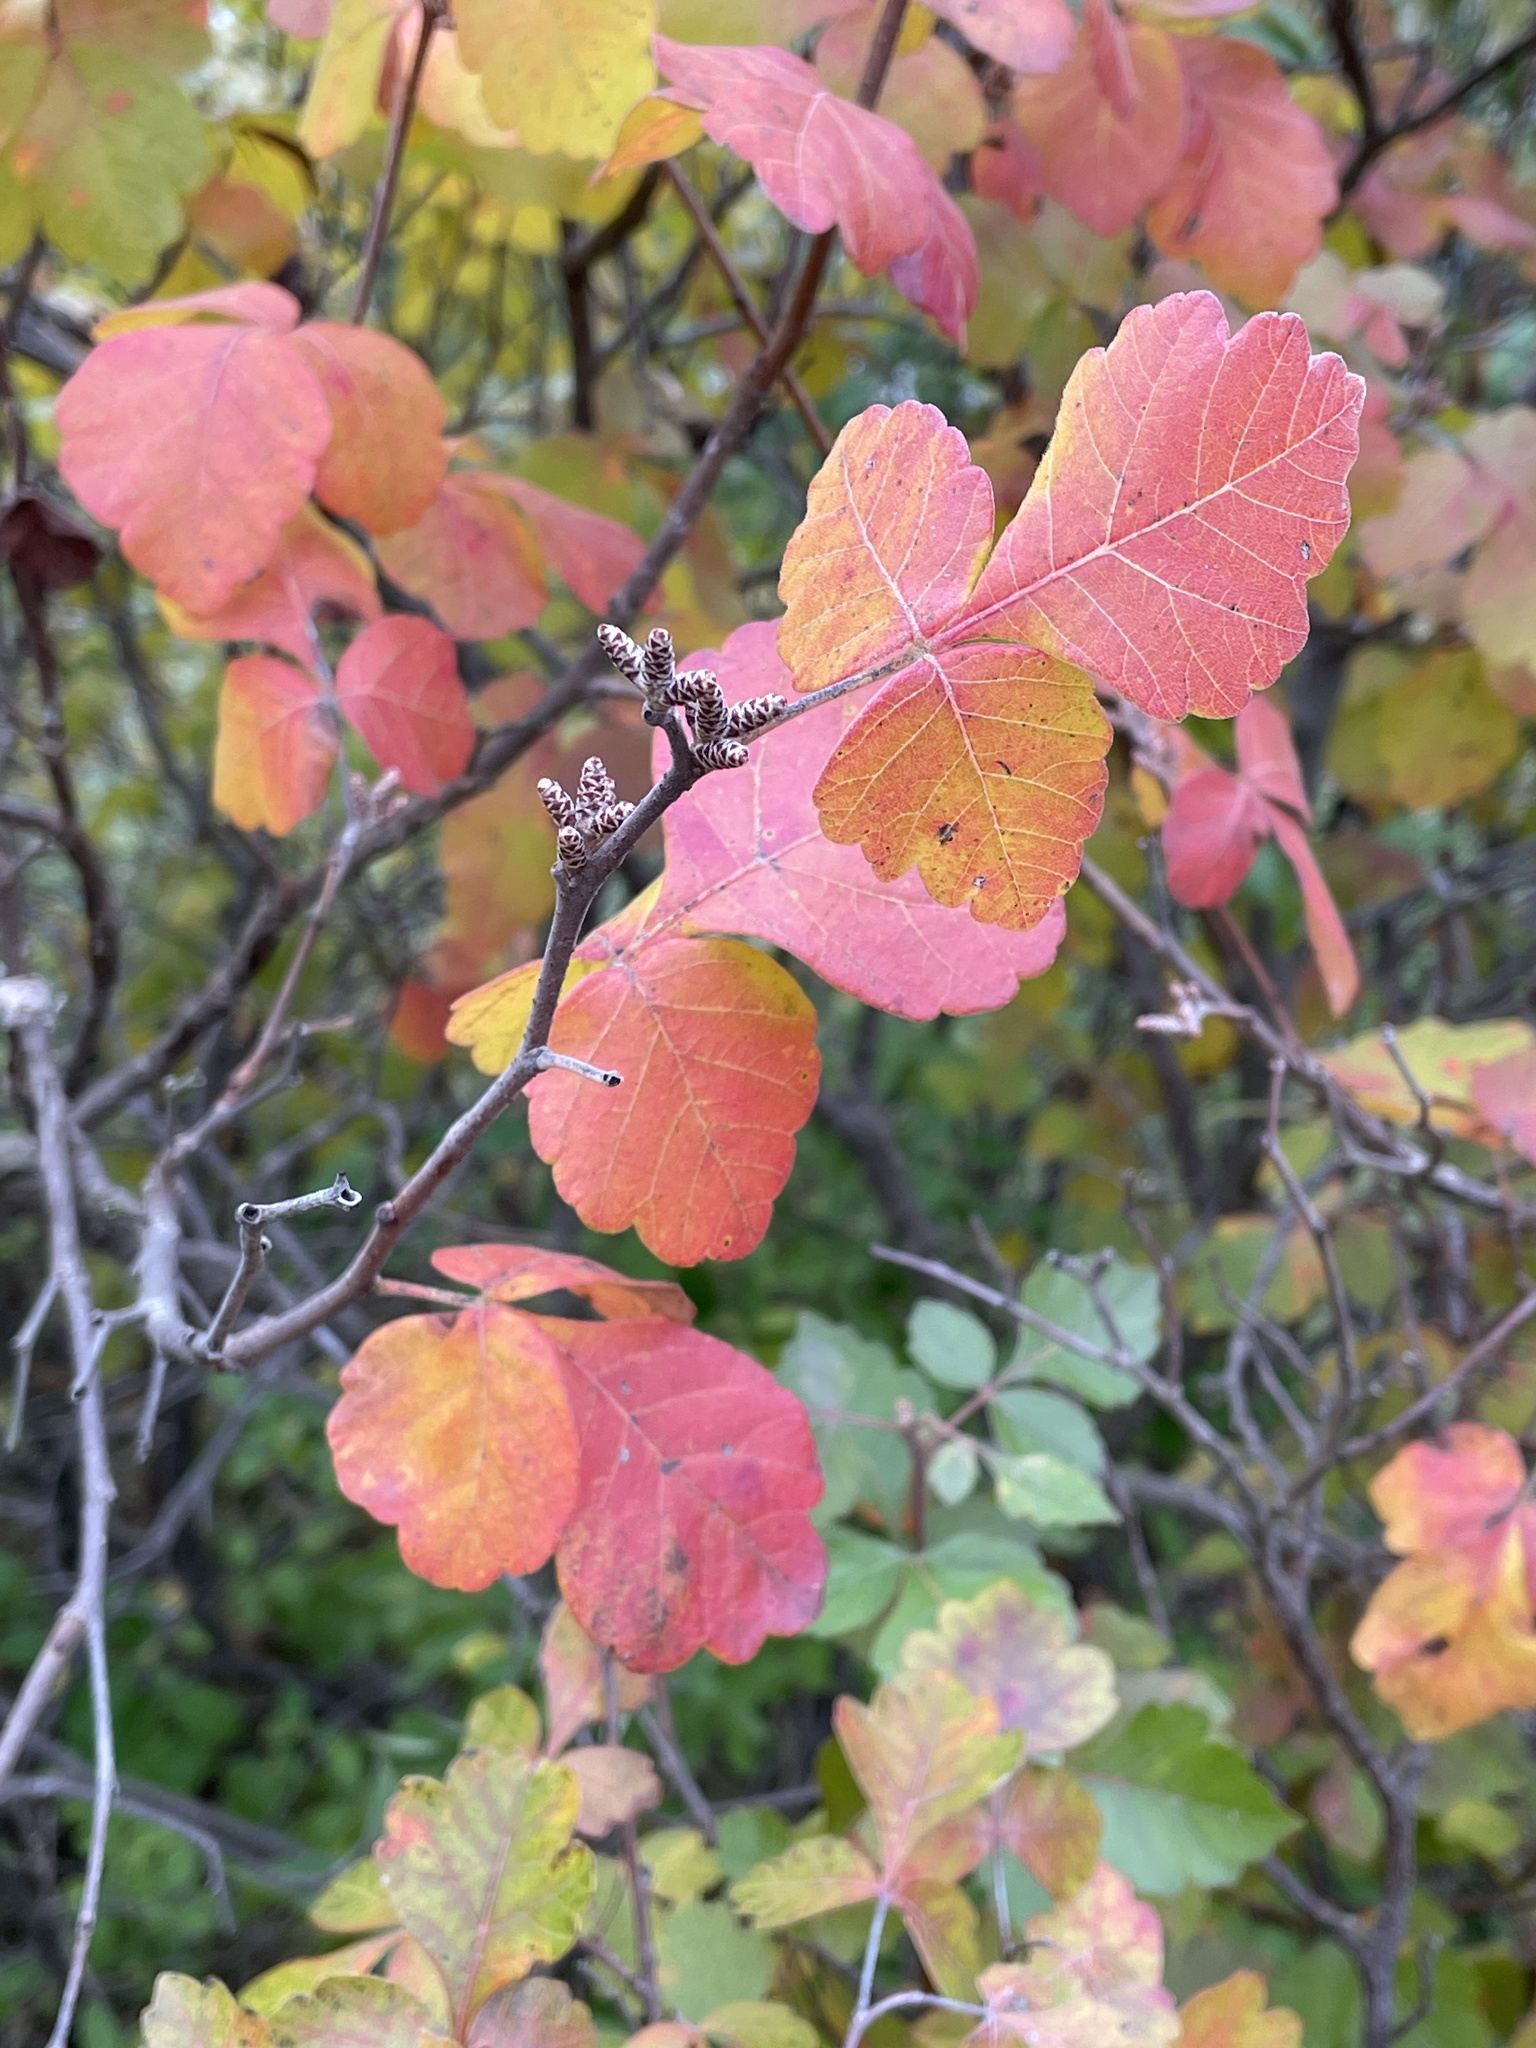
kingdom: Plantae
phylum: Tracheophyta
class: Magnoliopsida
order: Sapindales
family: Anacardiaceae
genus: Rhus
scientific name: Rhus aromatica
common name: Aromatic sumac
